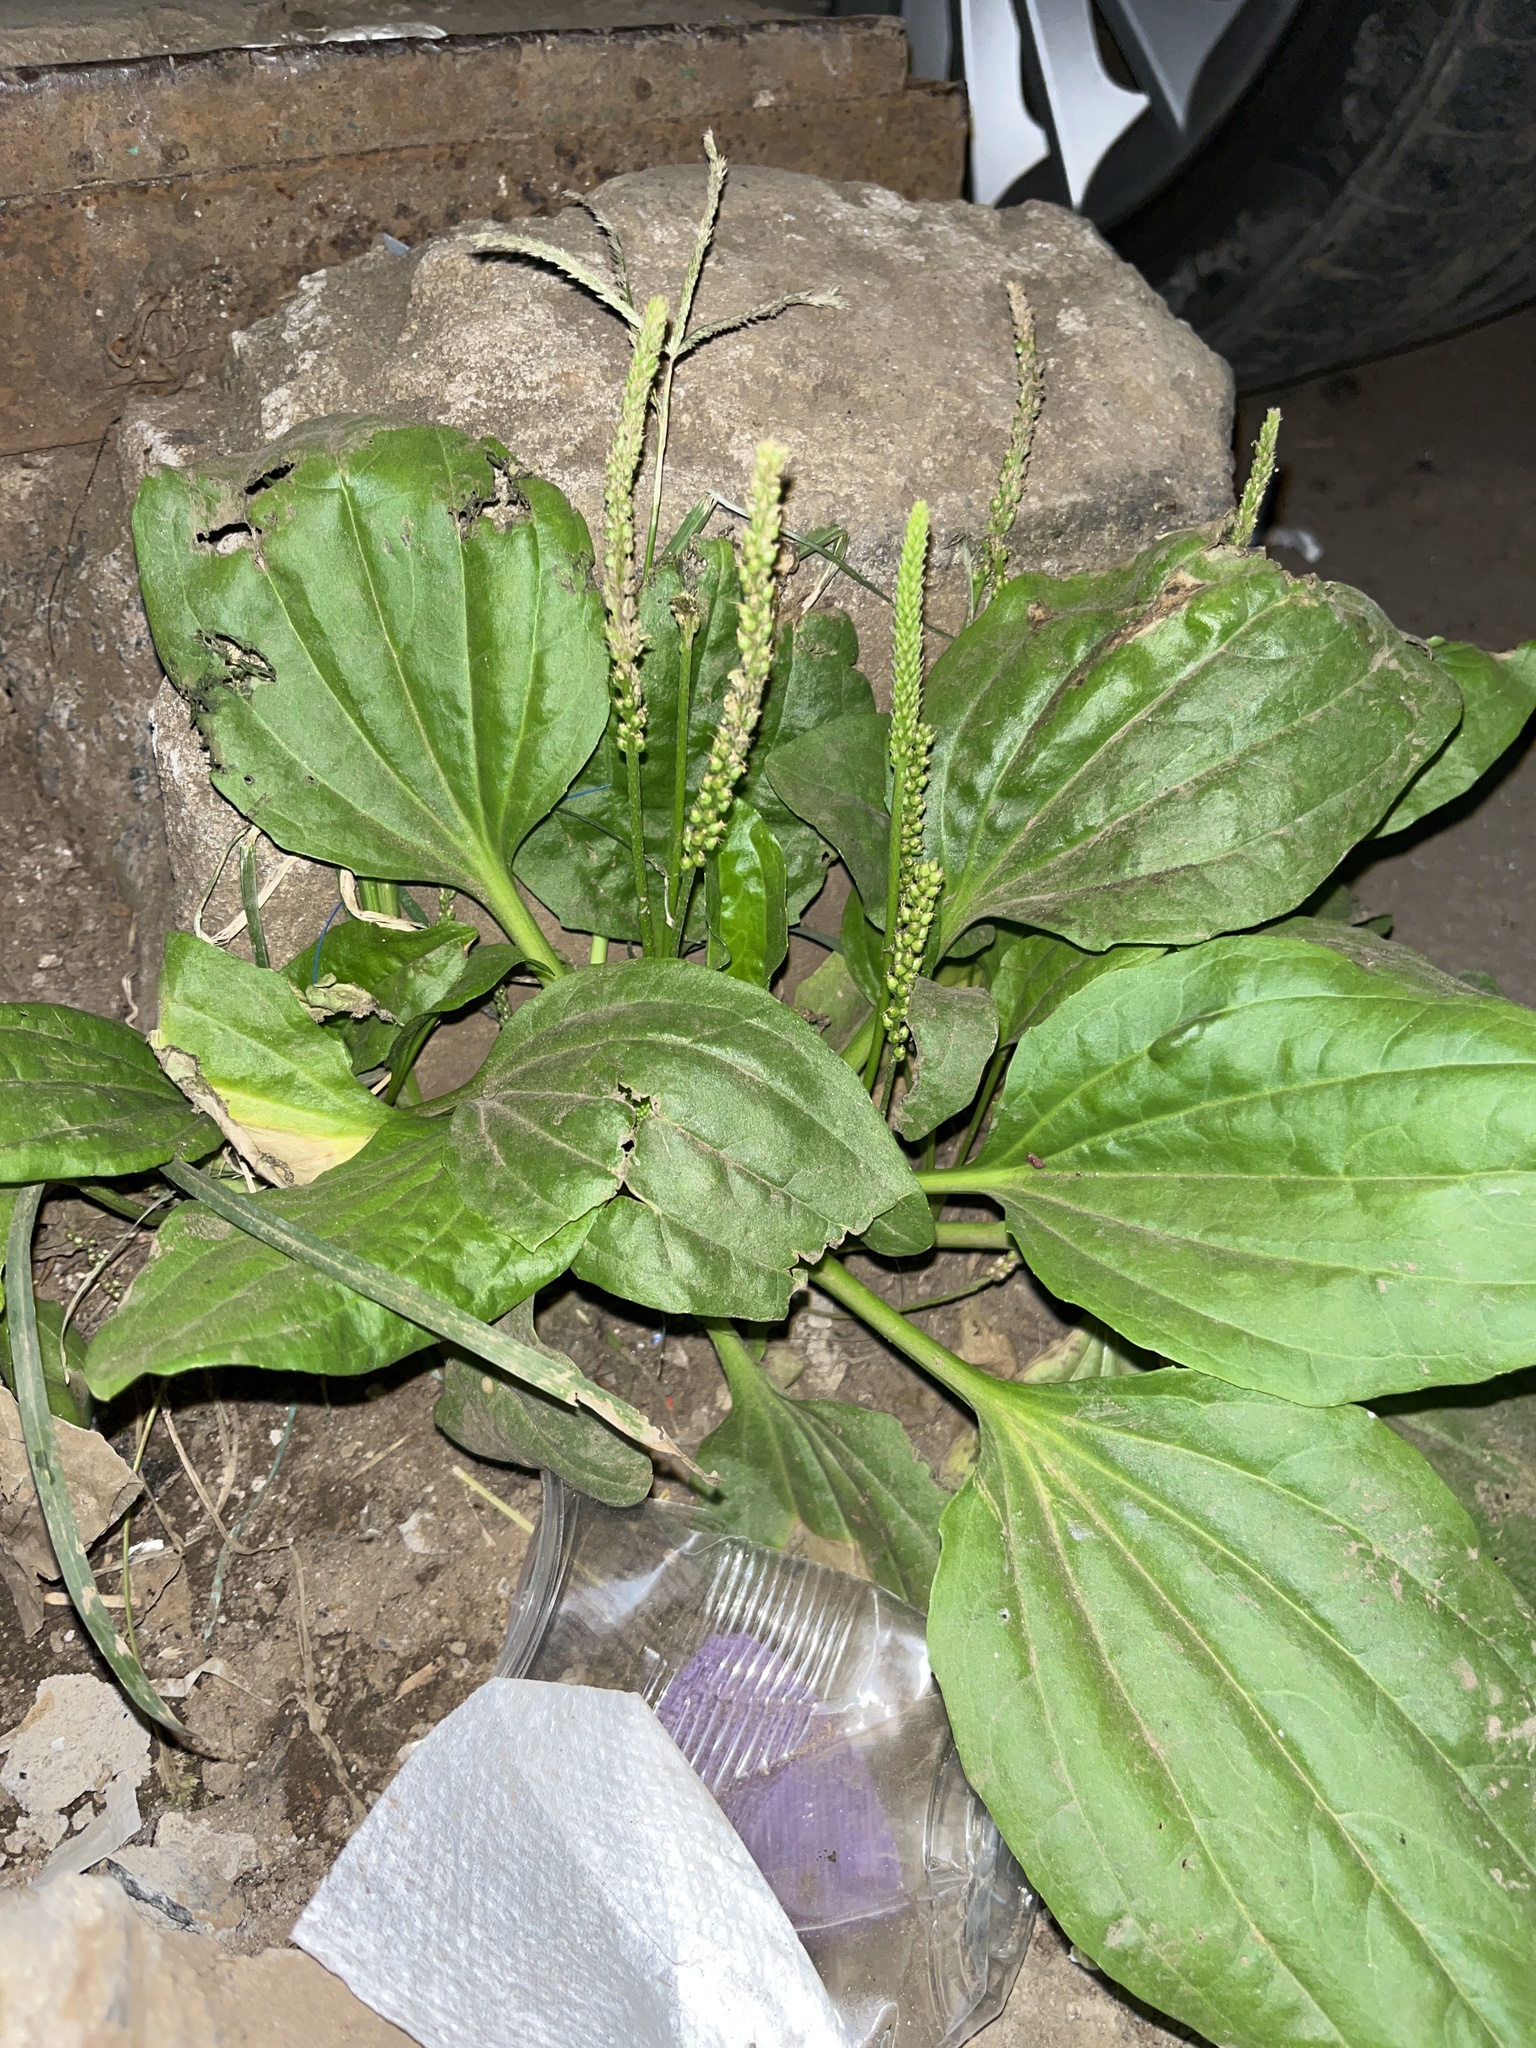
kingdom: Plantae
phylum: Tracheophyta
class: Magnoliopsida
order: Lamiales
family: Plantaginaceae
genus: Plantago
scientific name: Plantago major
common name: Common plantain
